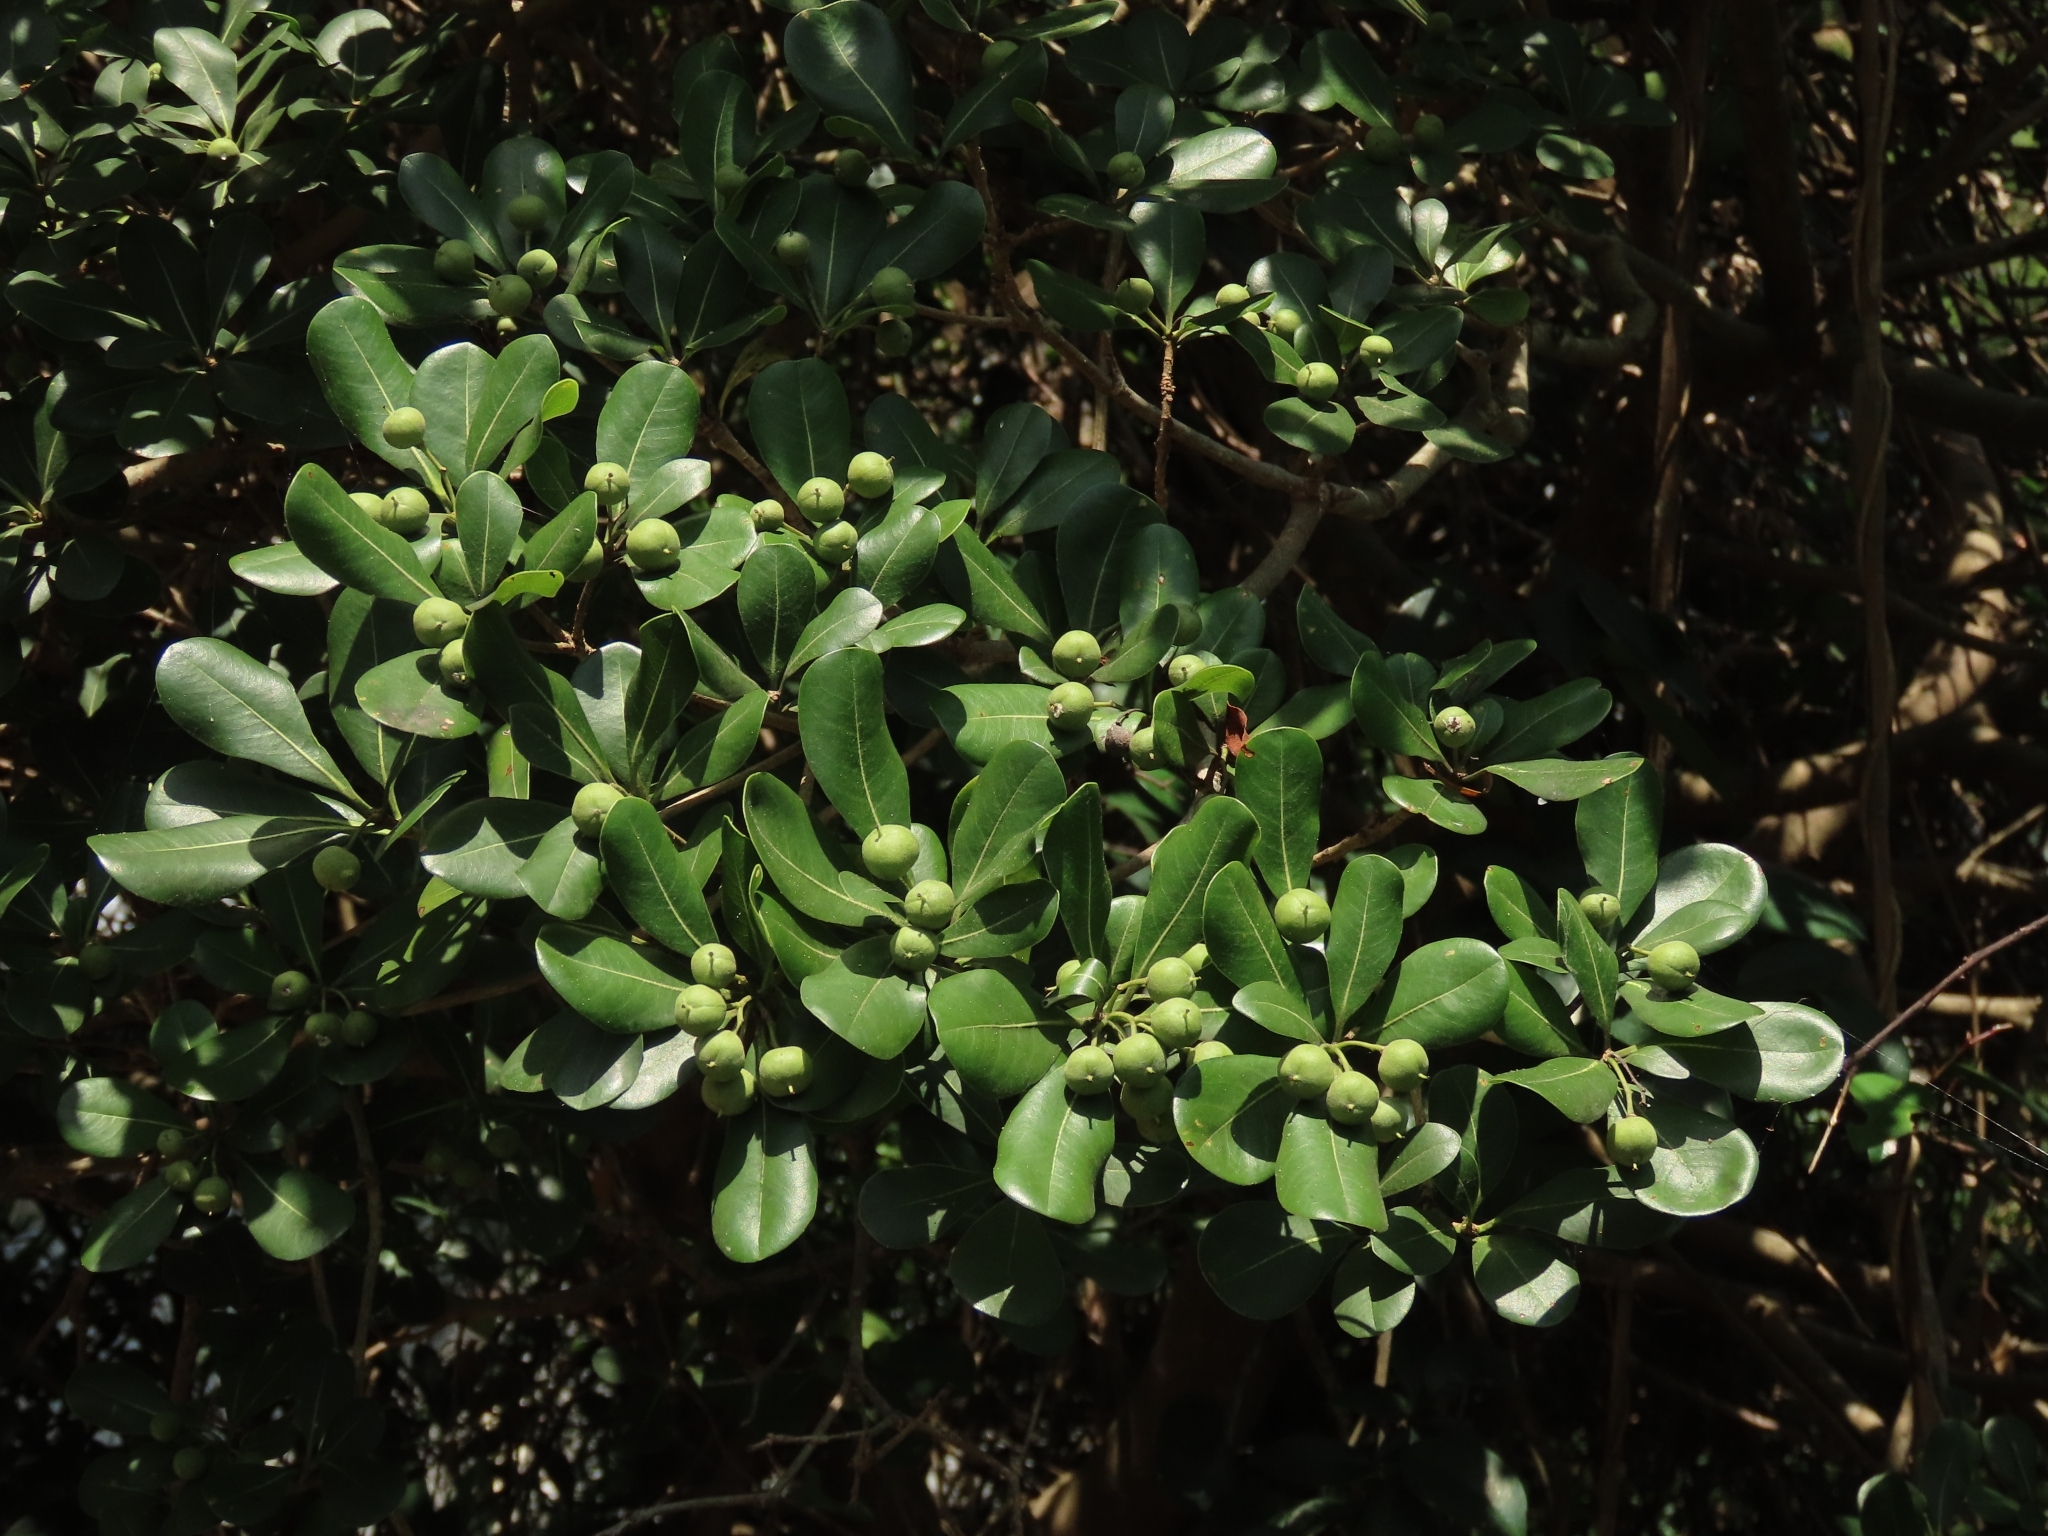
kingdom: Plantae
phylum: Tracheophyta
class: Magnoliopsida
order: Apiales
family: Pittosporaceae
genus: Pittosporum
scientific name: Pittosporum tobira
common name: Japanese cheesewood
